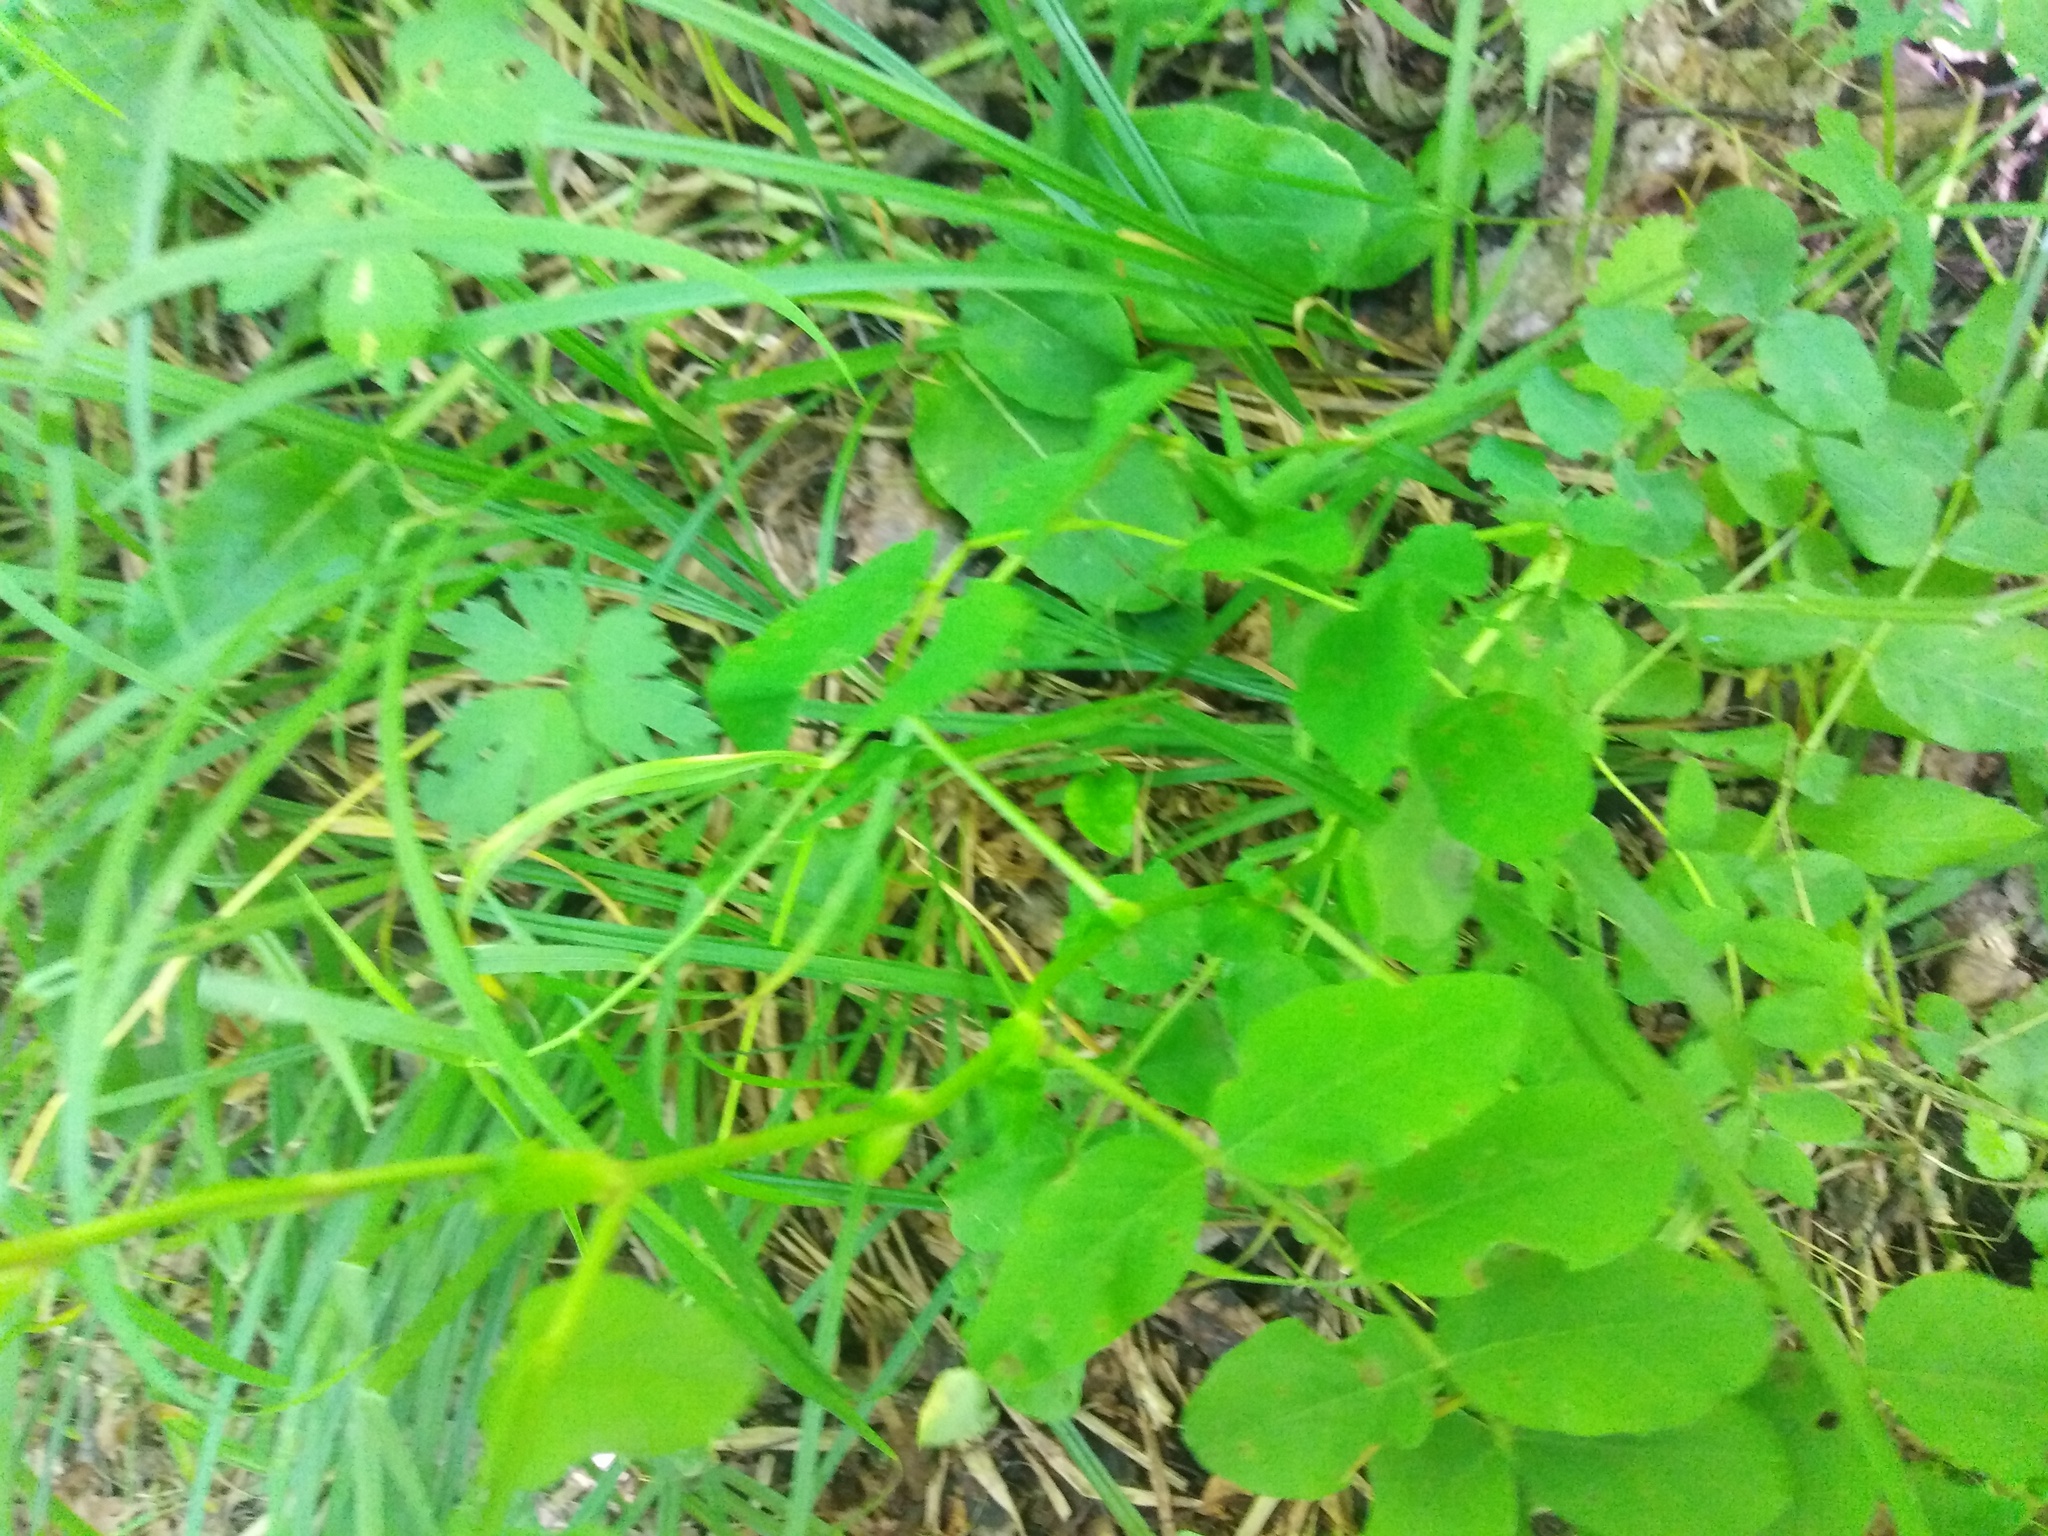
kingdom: Plantae
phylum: Tracheophyta
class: Magnoliopsida
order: Fabales
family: Fabaceae
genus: Astragalus
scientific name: Astragalus glycyphyllos
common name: Wild liquorice
